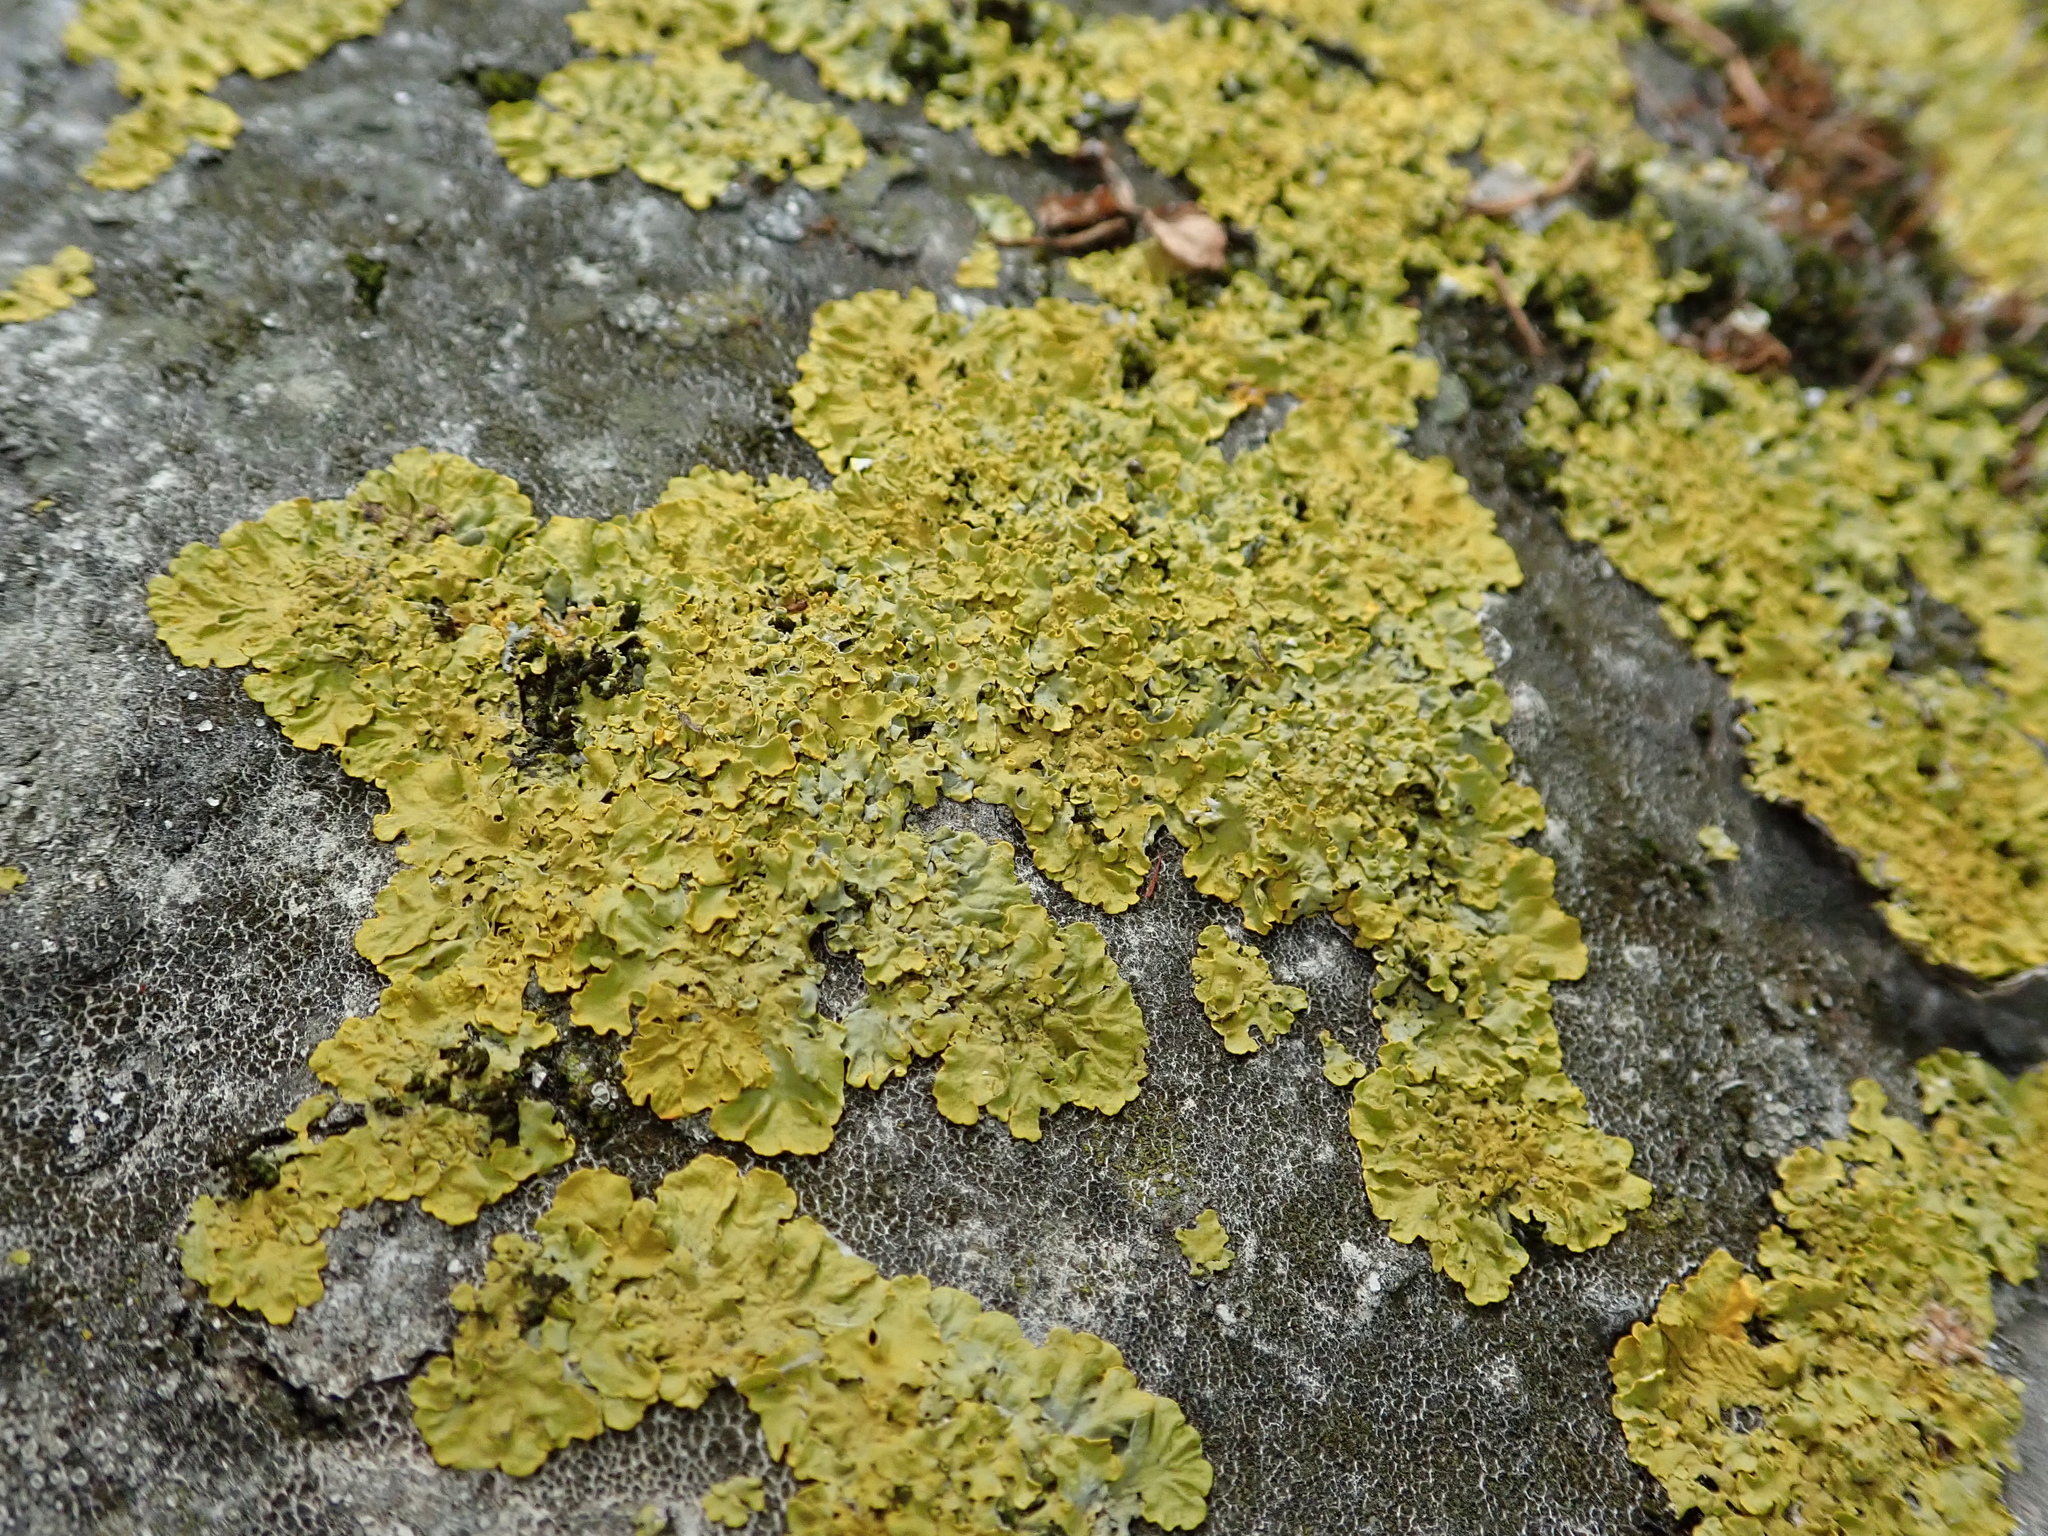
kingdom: Fungi
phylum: Ascomycota
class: Lecanoromycetes
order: Teloschistales
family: Teloschistaceae
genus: Xanthoria
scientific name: Xanthoria parietina
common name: Common orange lichen
